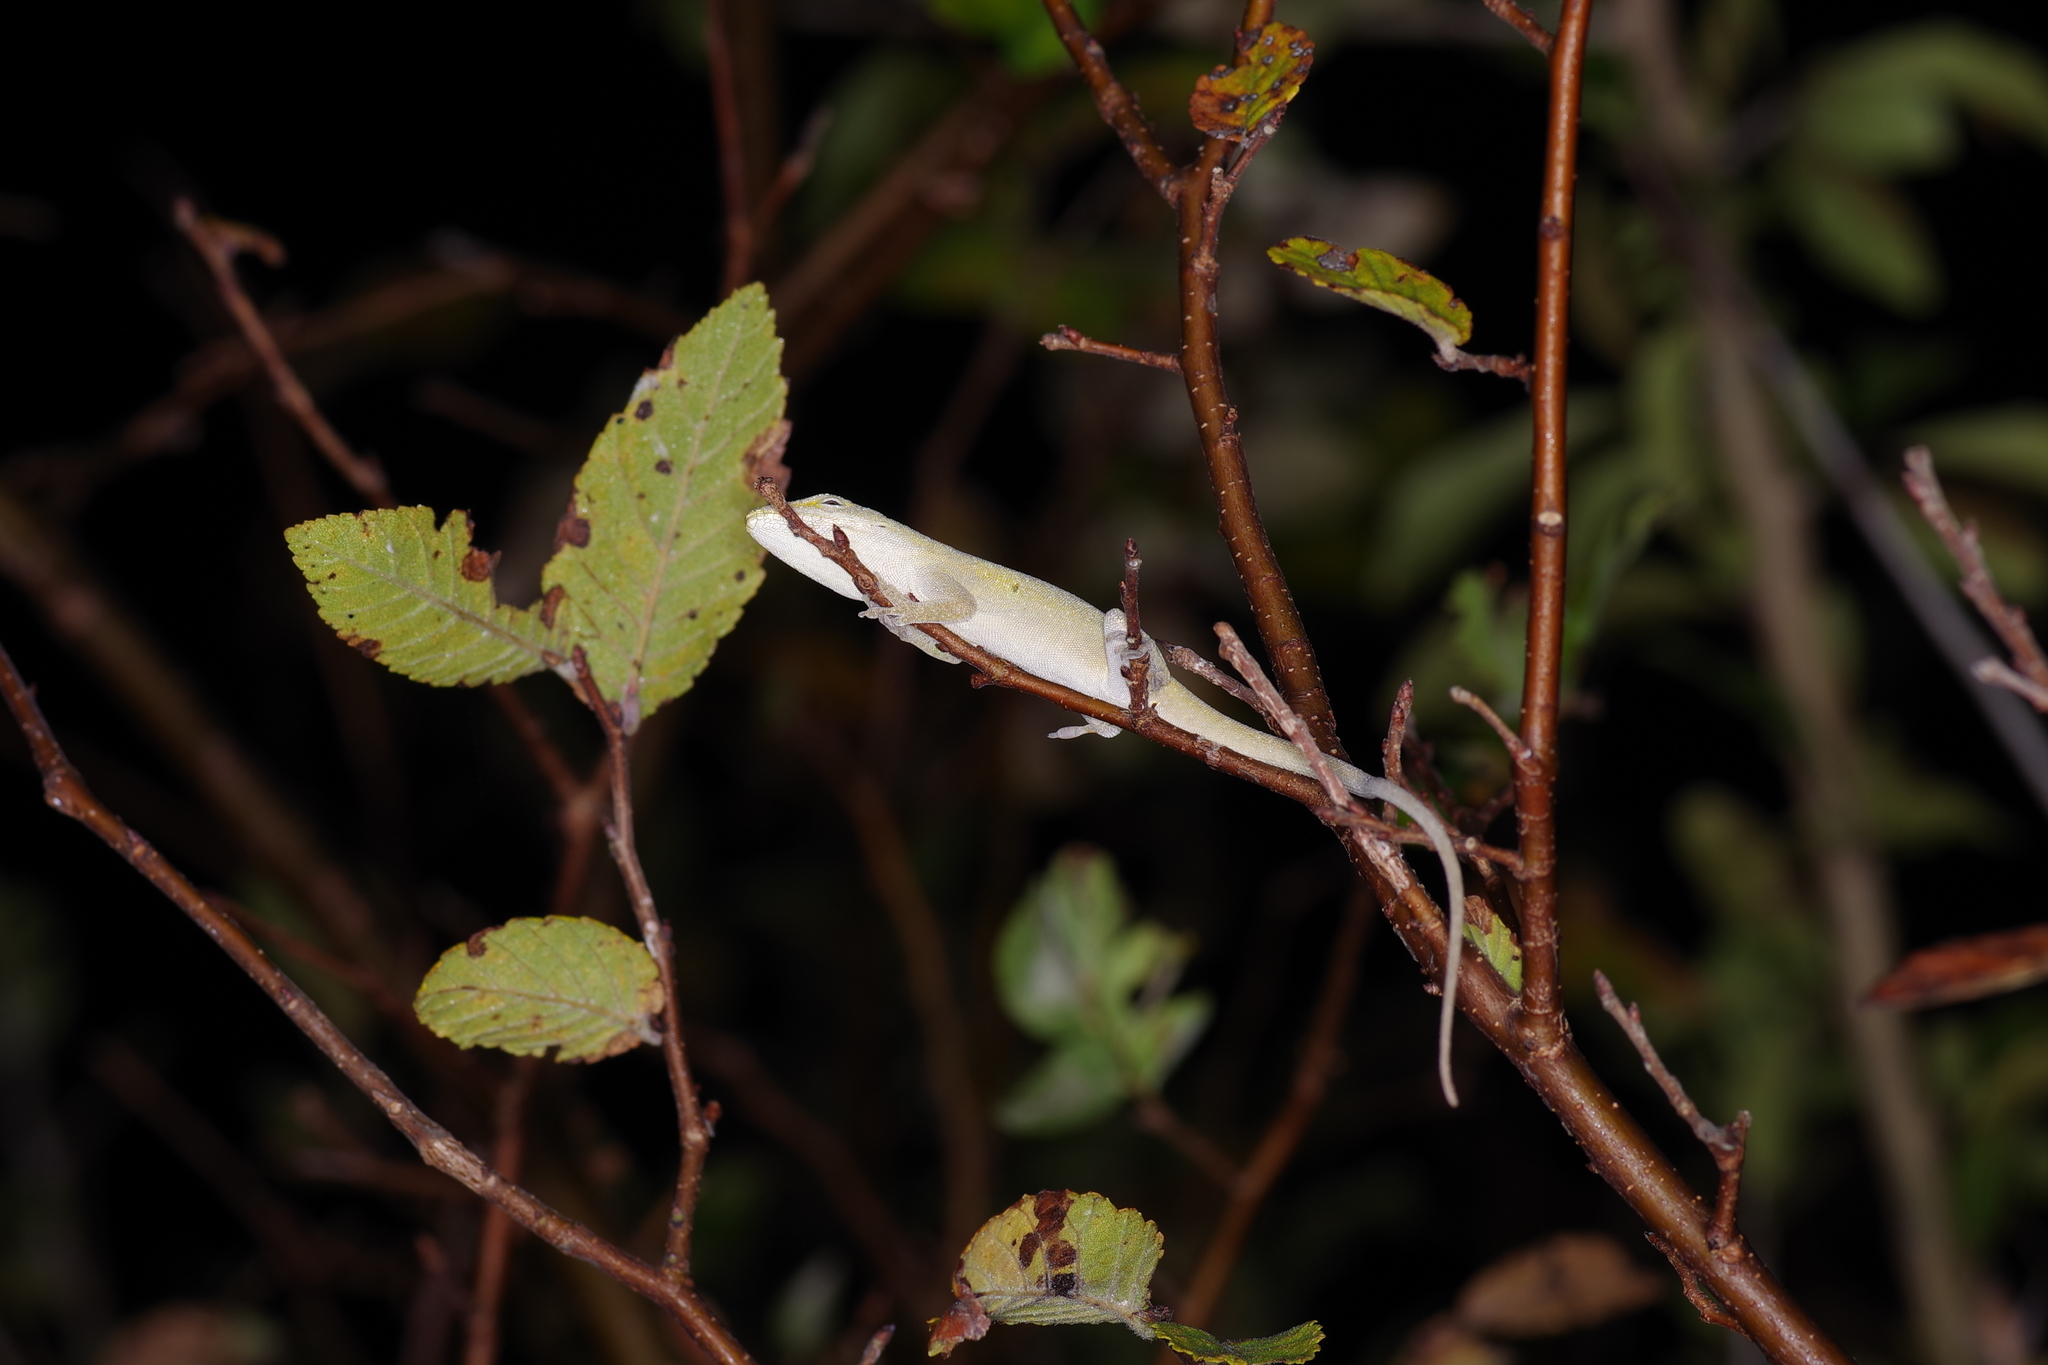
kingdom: Animalia
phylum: Chordata
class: Squamata
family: Dactyloidae
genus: Anolis
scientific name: Anolis carolinensis
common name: Green anole
